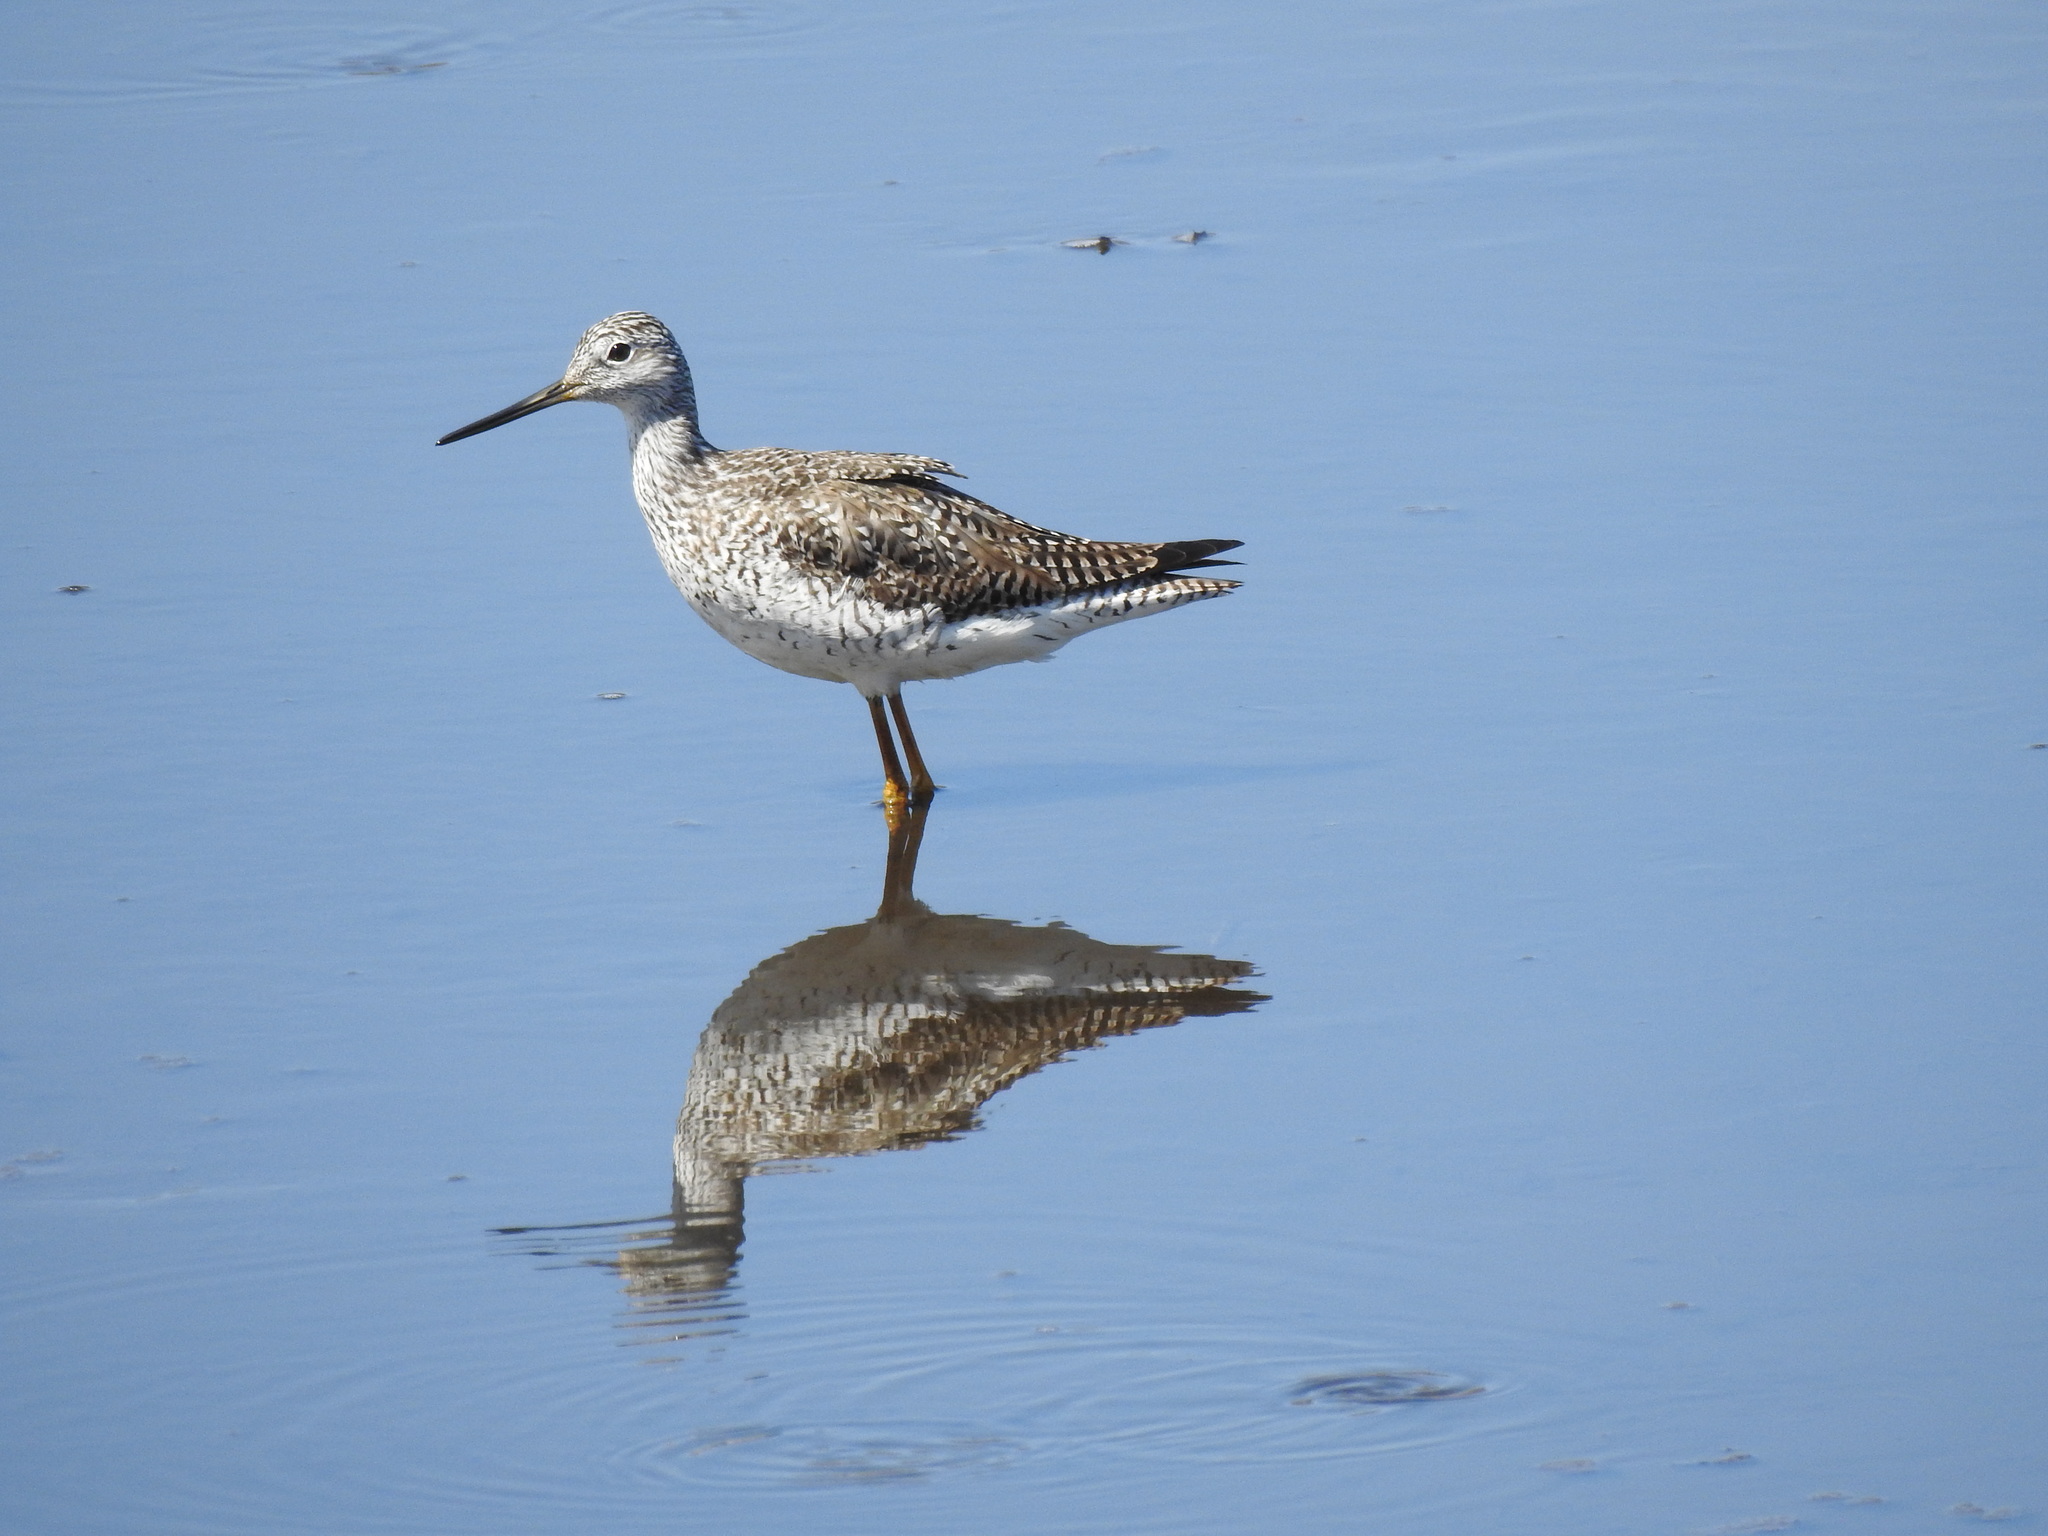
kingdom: Animalia
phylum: Chordata
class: Aves
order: Charadriiformes
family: Scolopacidae
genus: Tringa
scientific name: Tringa melanoleuca
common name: Greater yellowlegs
